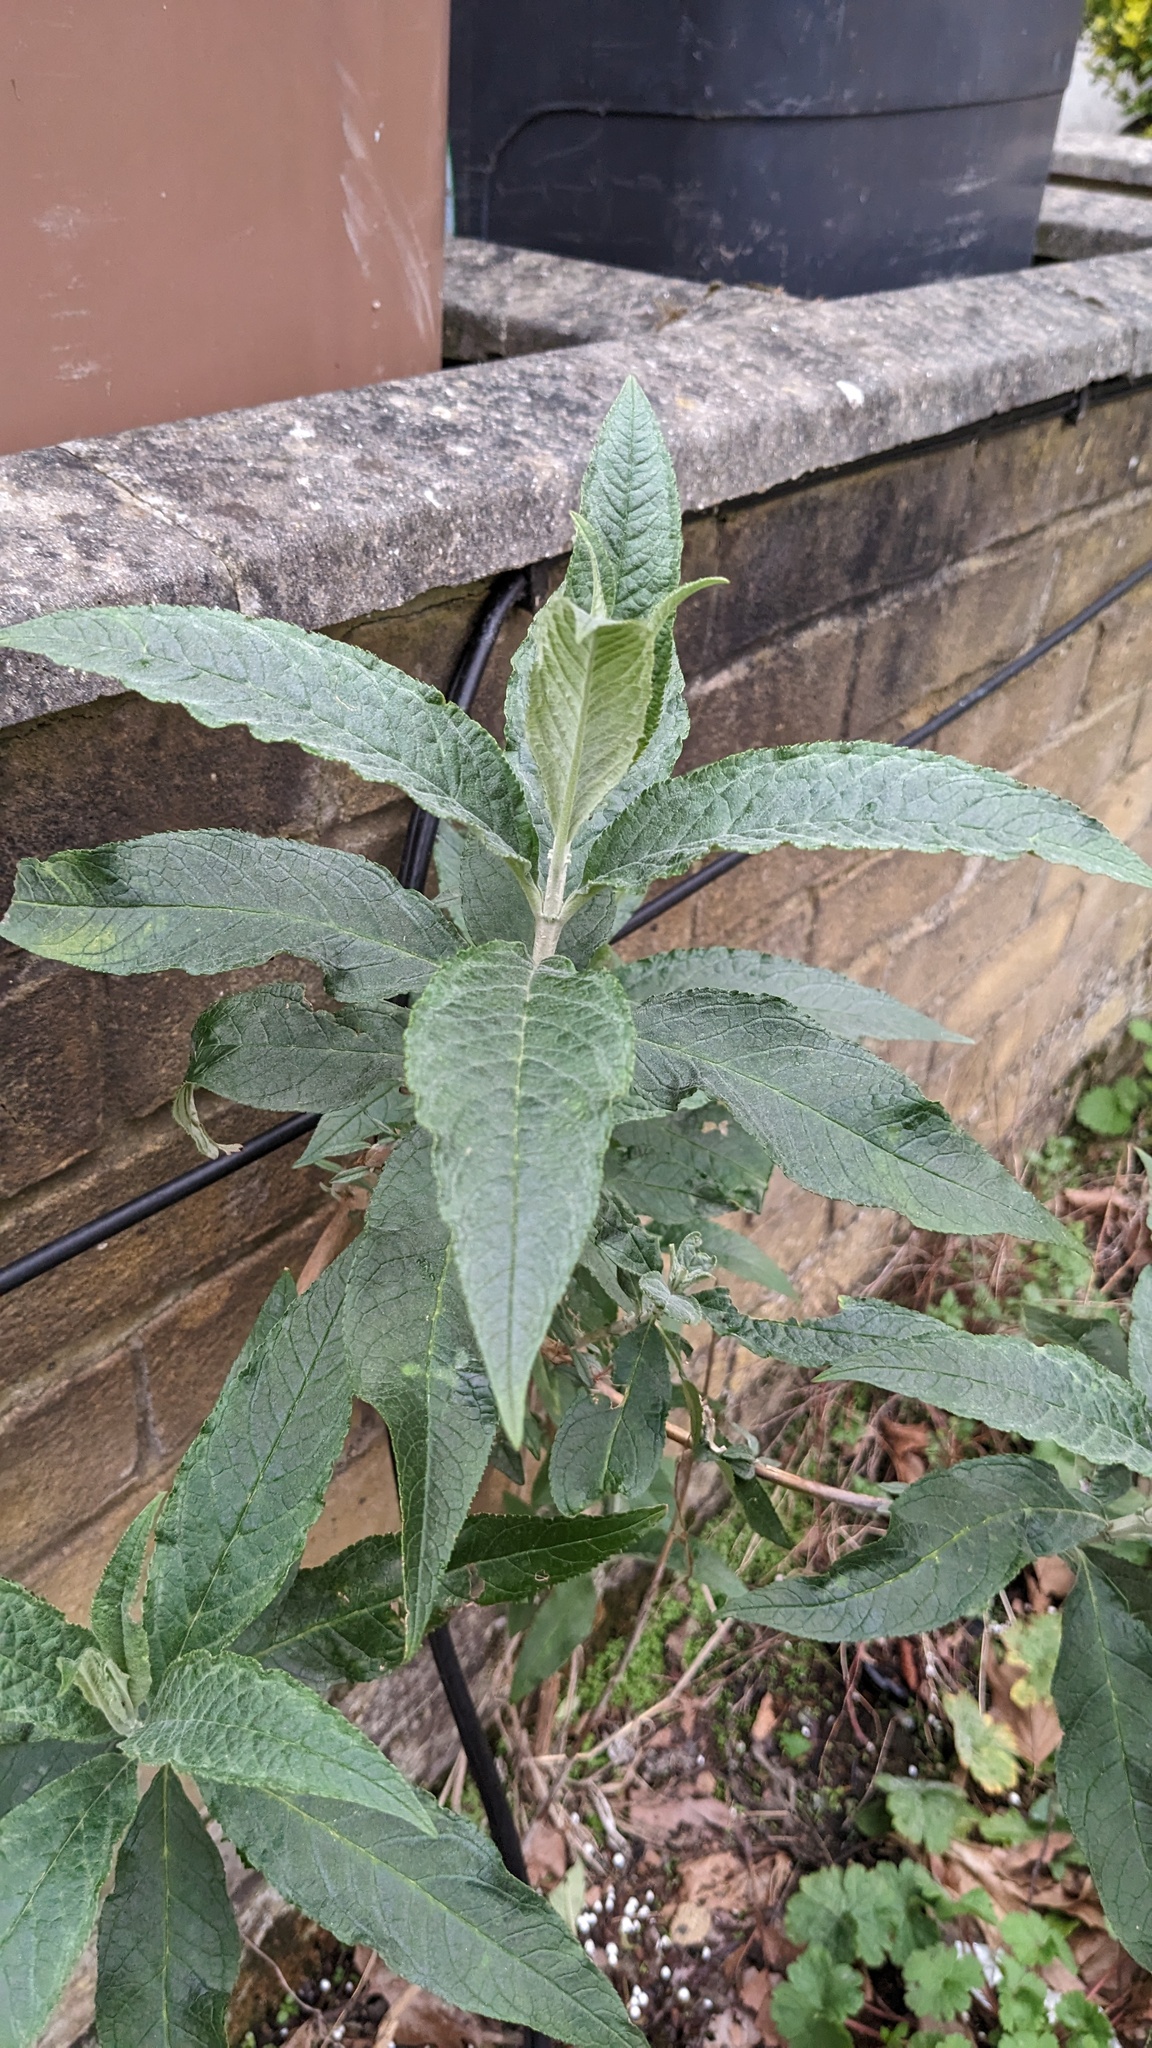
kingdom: Plantae
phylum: Tracheophyta
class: Magnoliopsida
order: Lamiales
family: Scrophulariaceae
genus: Buddleja
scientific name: Buddleja davidii
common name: Butterfly-bush
